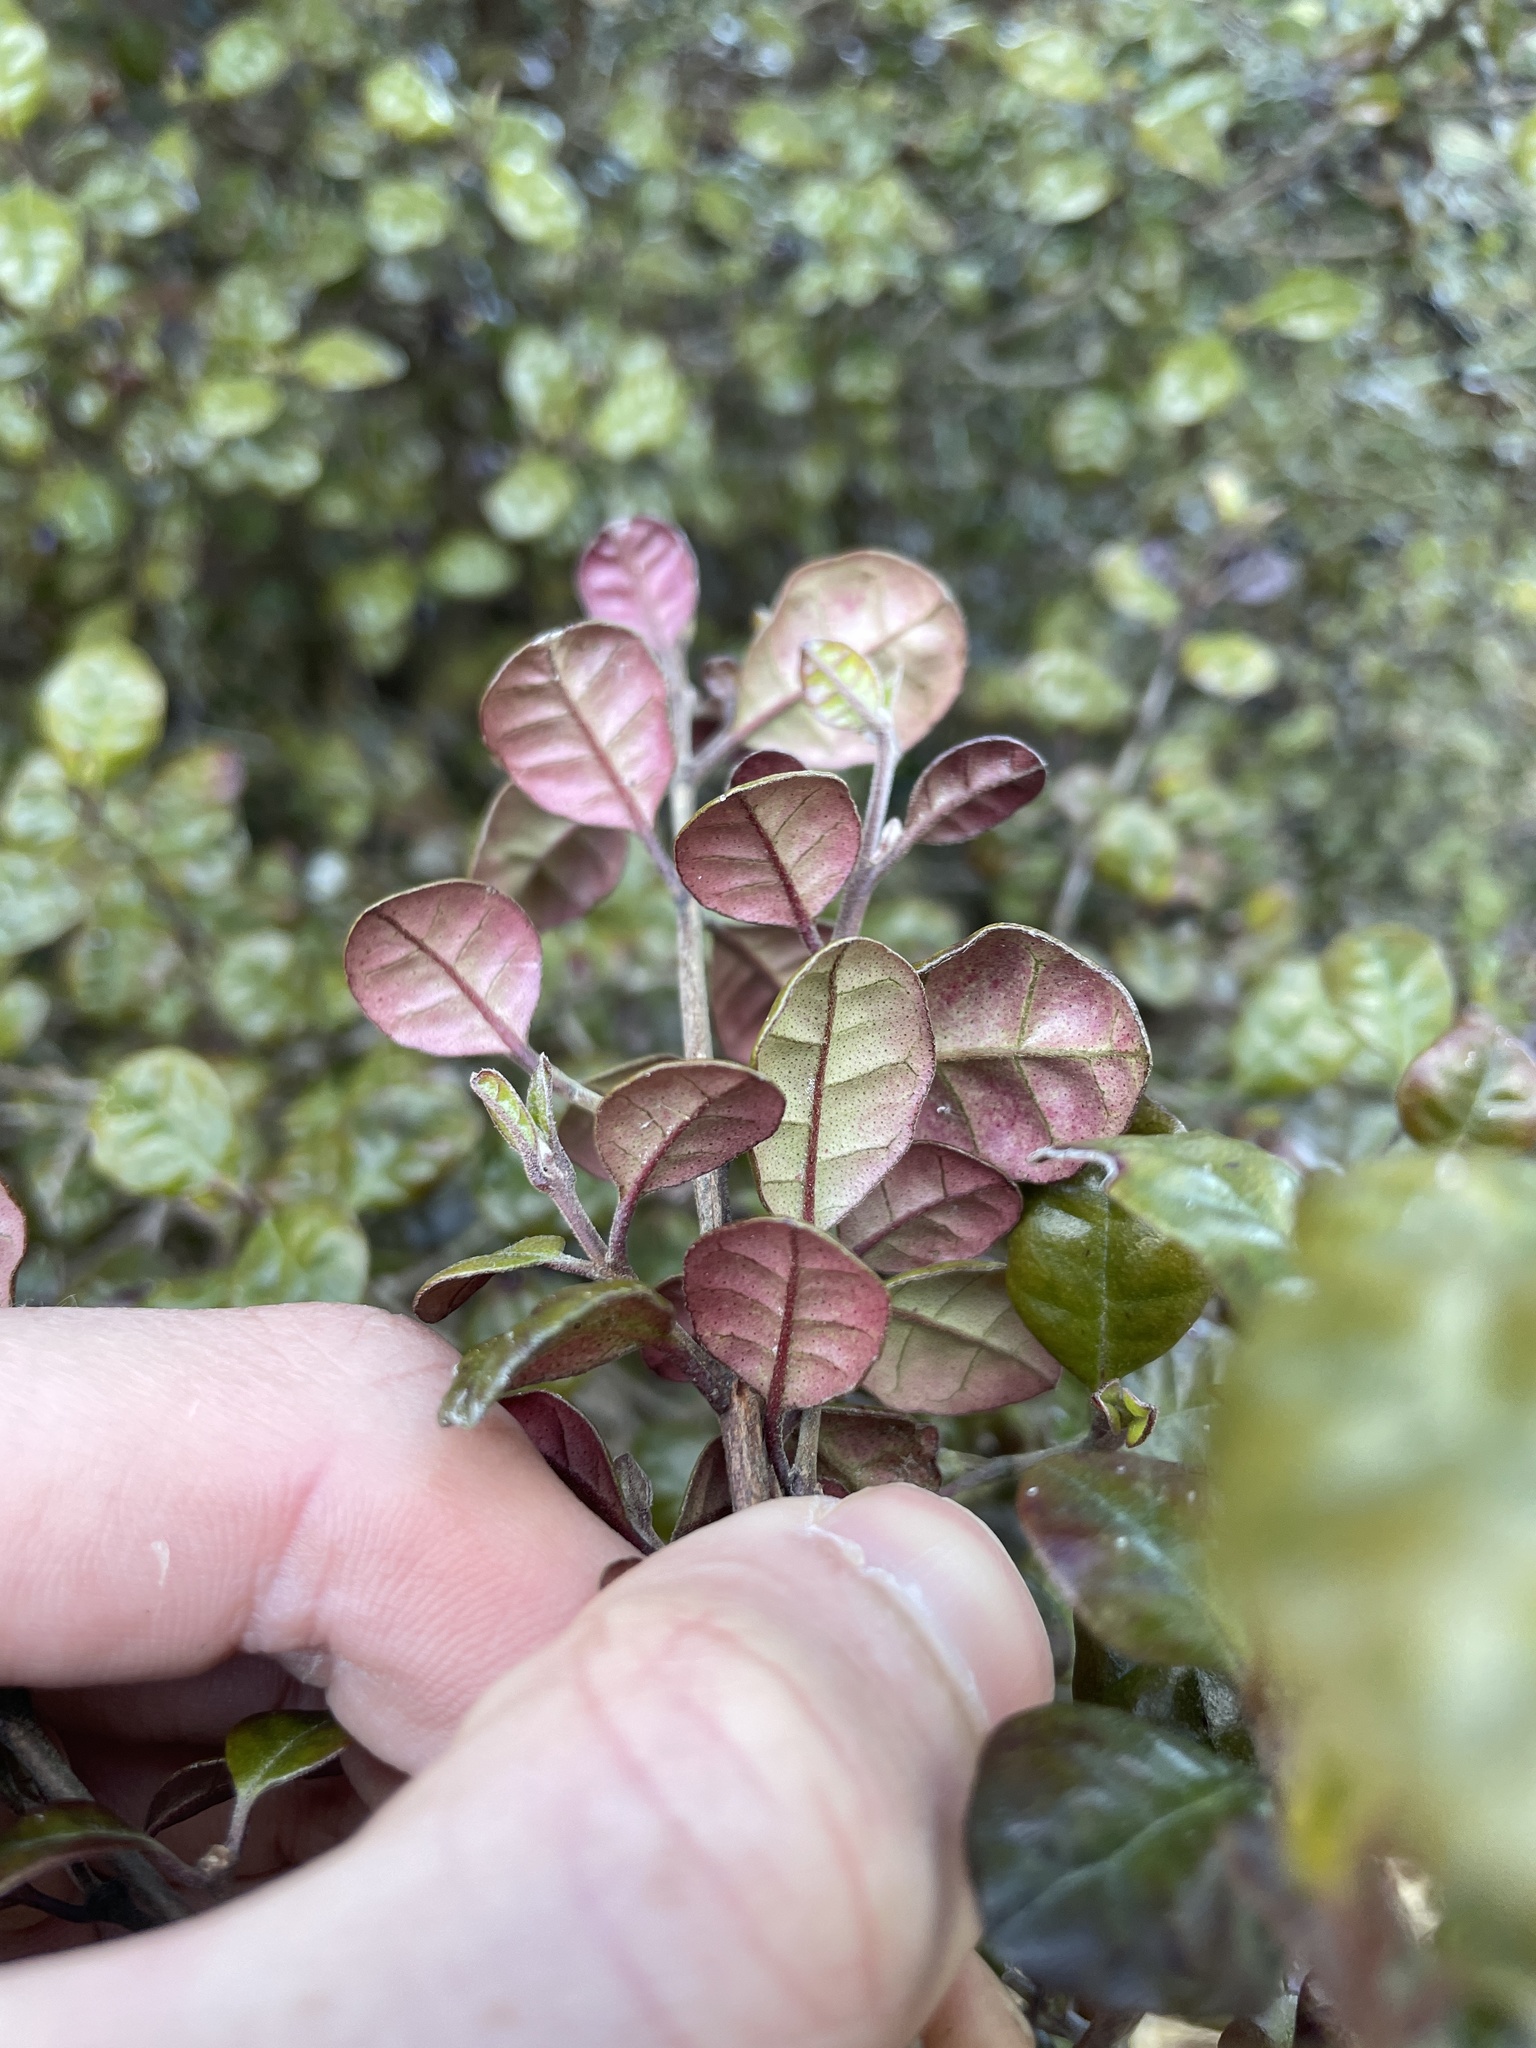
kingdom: Plantae
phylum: Tracheophyta
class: Magnoliopsida
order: Myrtales
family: Myrtaceae
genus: Lophomyrtus
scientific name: Lophomyrtus ralphii
